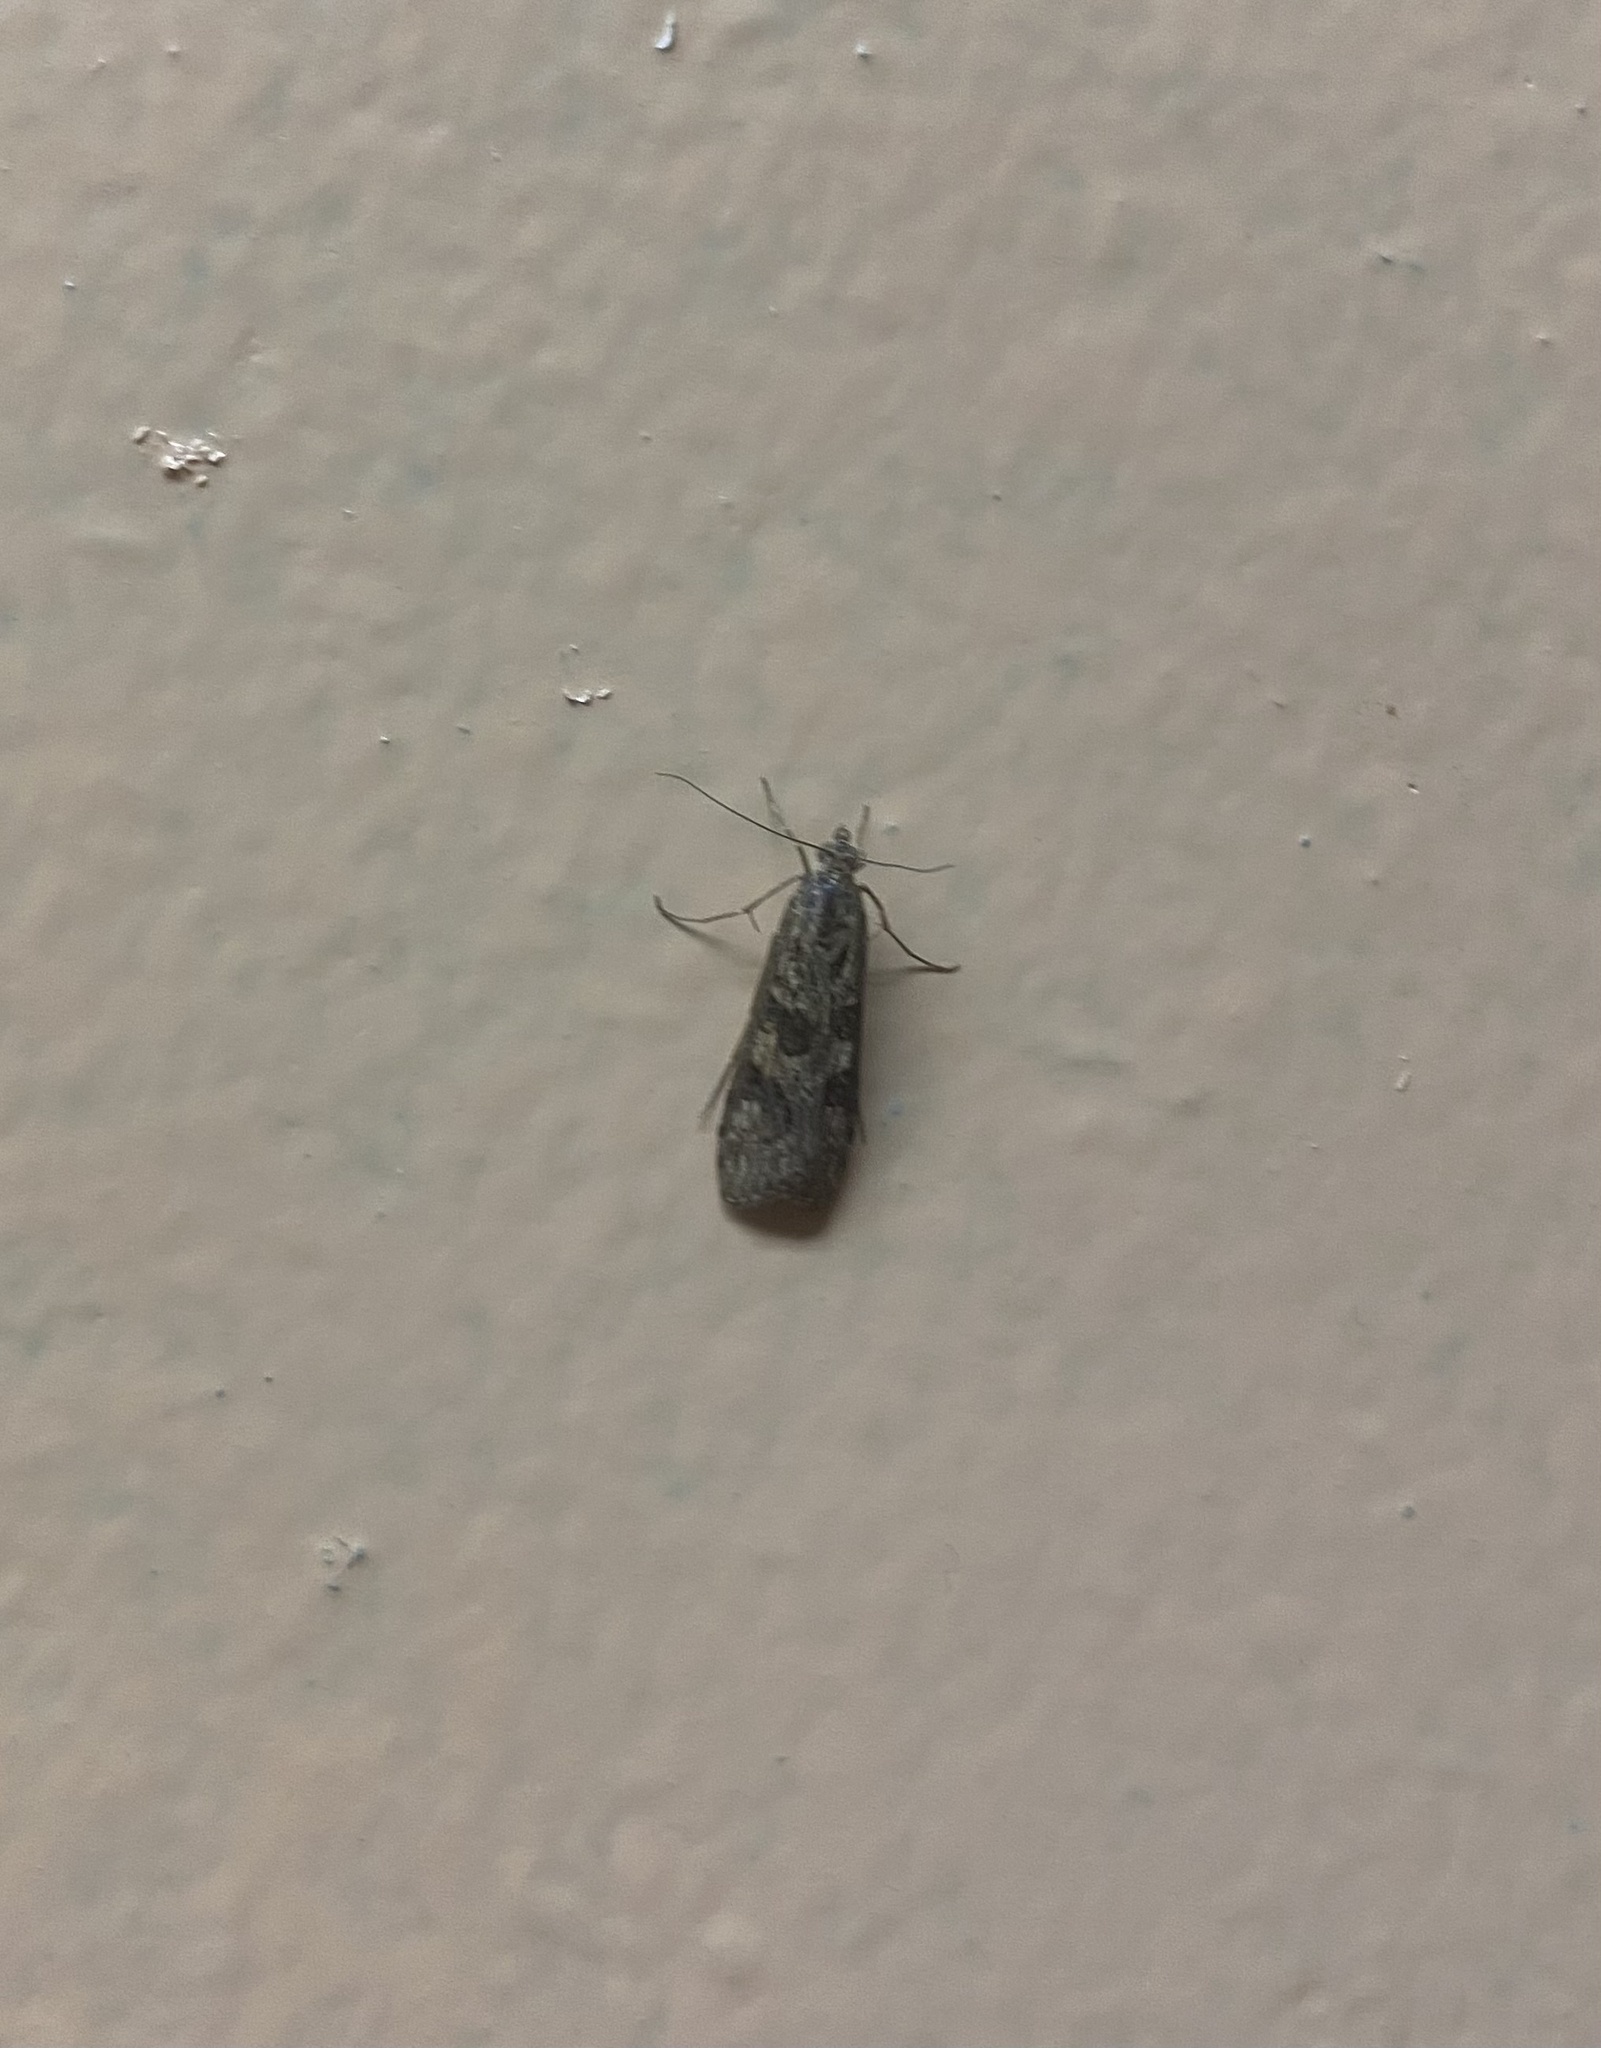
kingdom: Animalia
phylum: Arthropoda
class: Insecta
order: Lepidoptera
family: Crambidae
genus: Nomophila
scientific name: Nomophila noctuella
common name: Rush veneer
